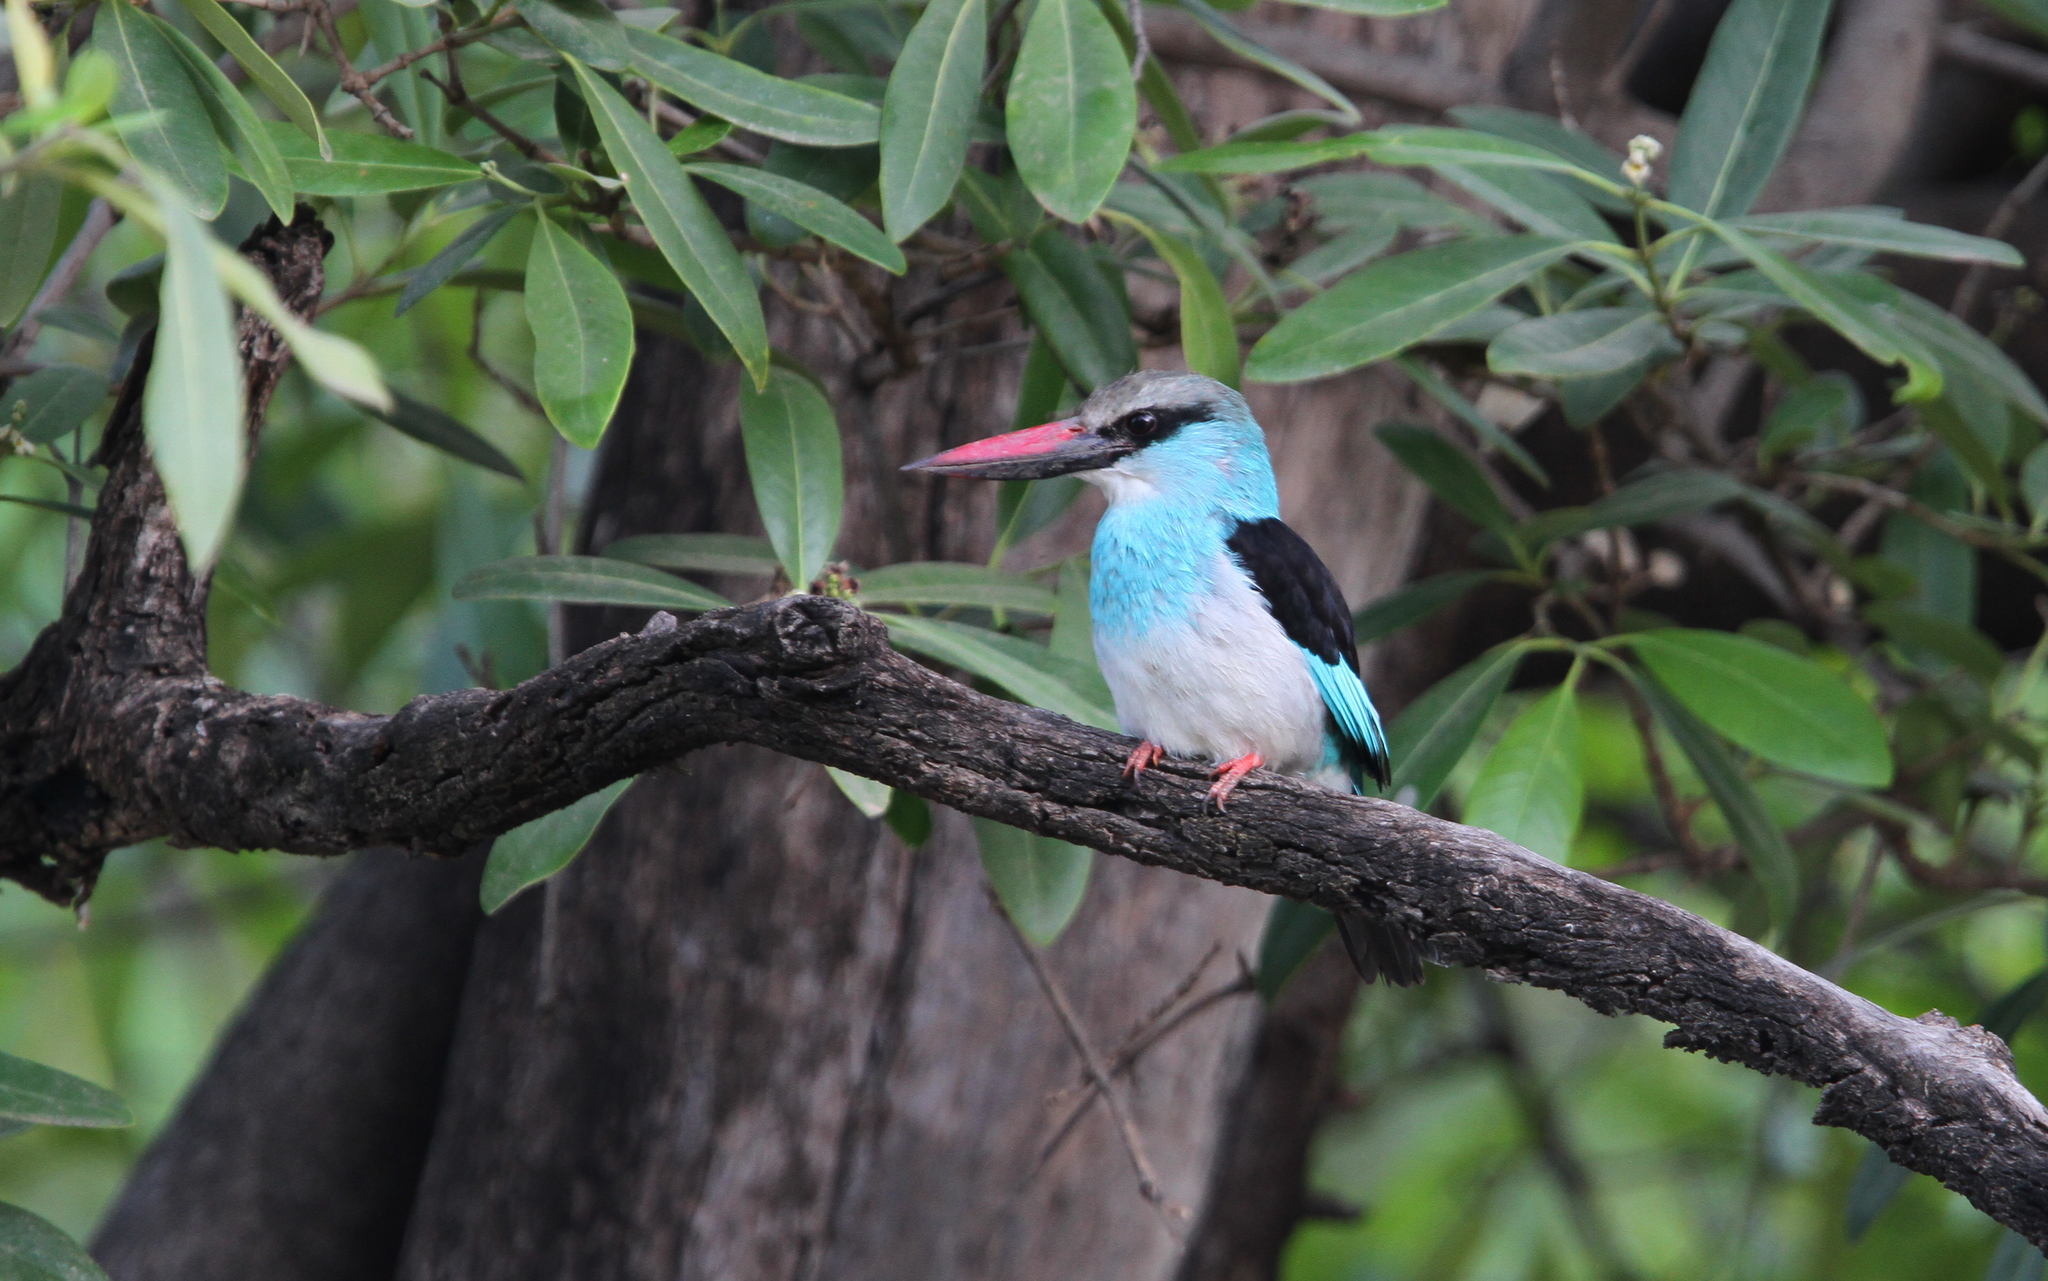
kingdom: Animalia
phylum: Chordata
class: Aves
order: Coraciiformes
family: Alcedinidae
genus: Halcyon
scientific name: Halcyon malimbica
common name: Blue-breasted kingfisher
